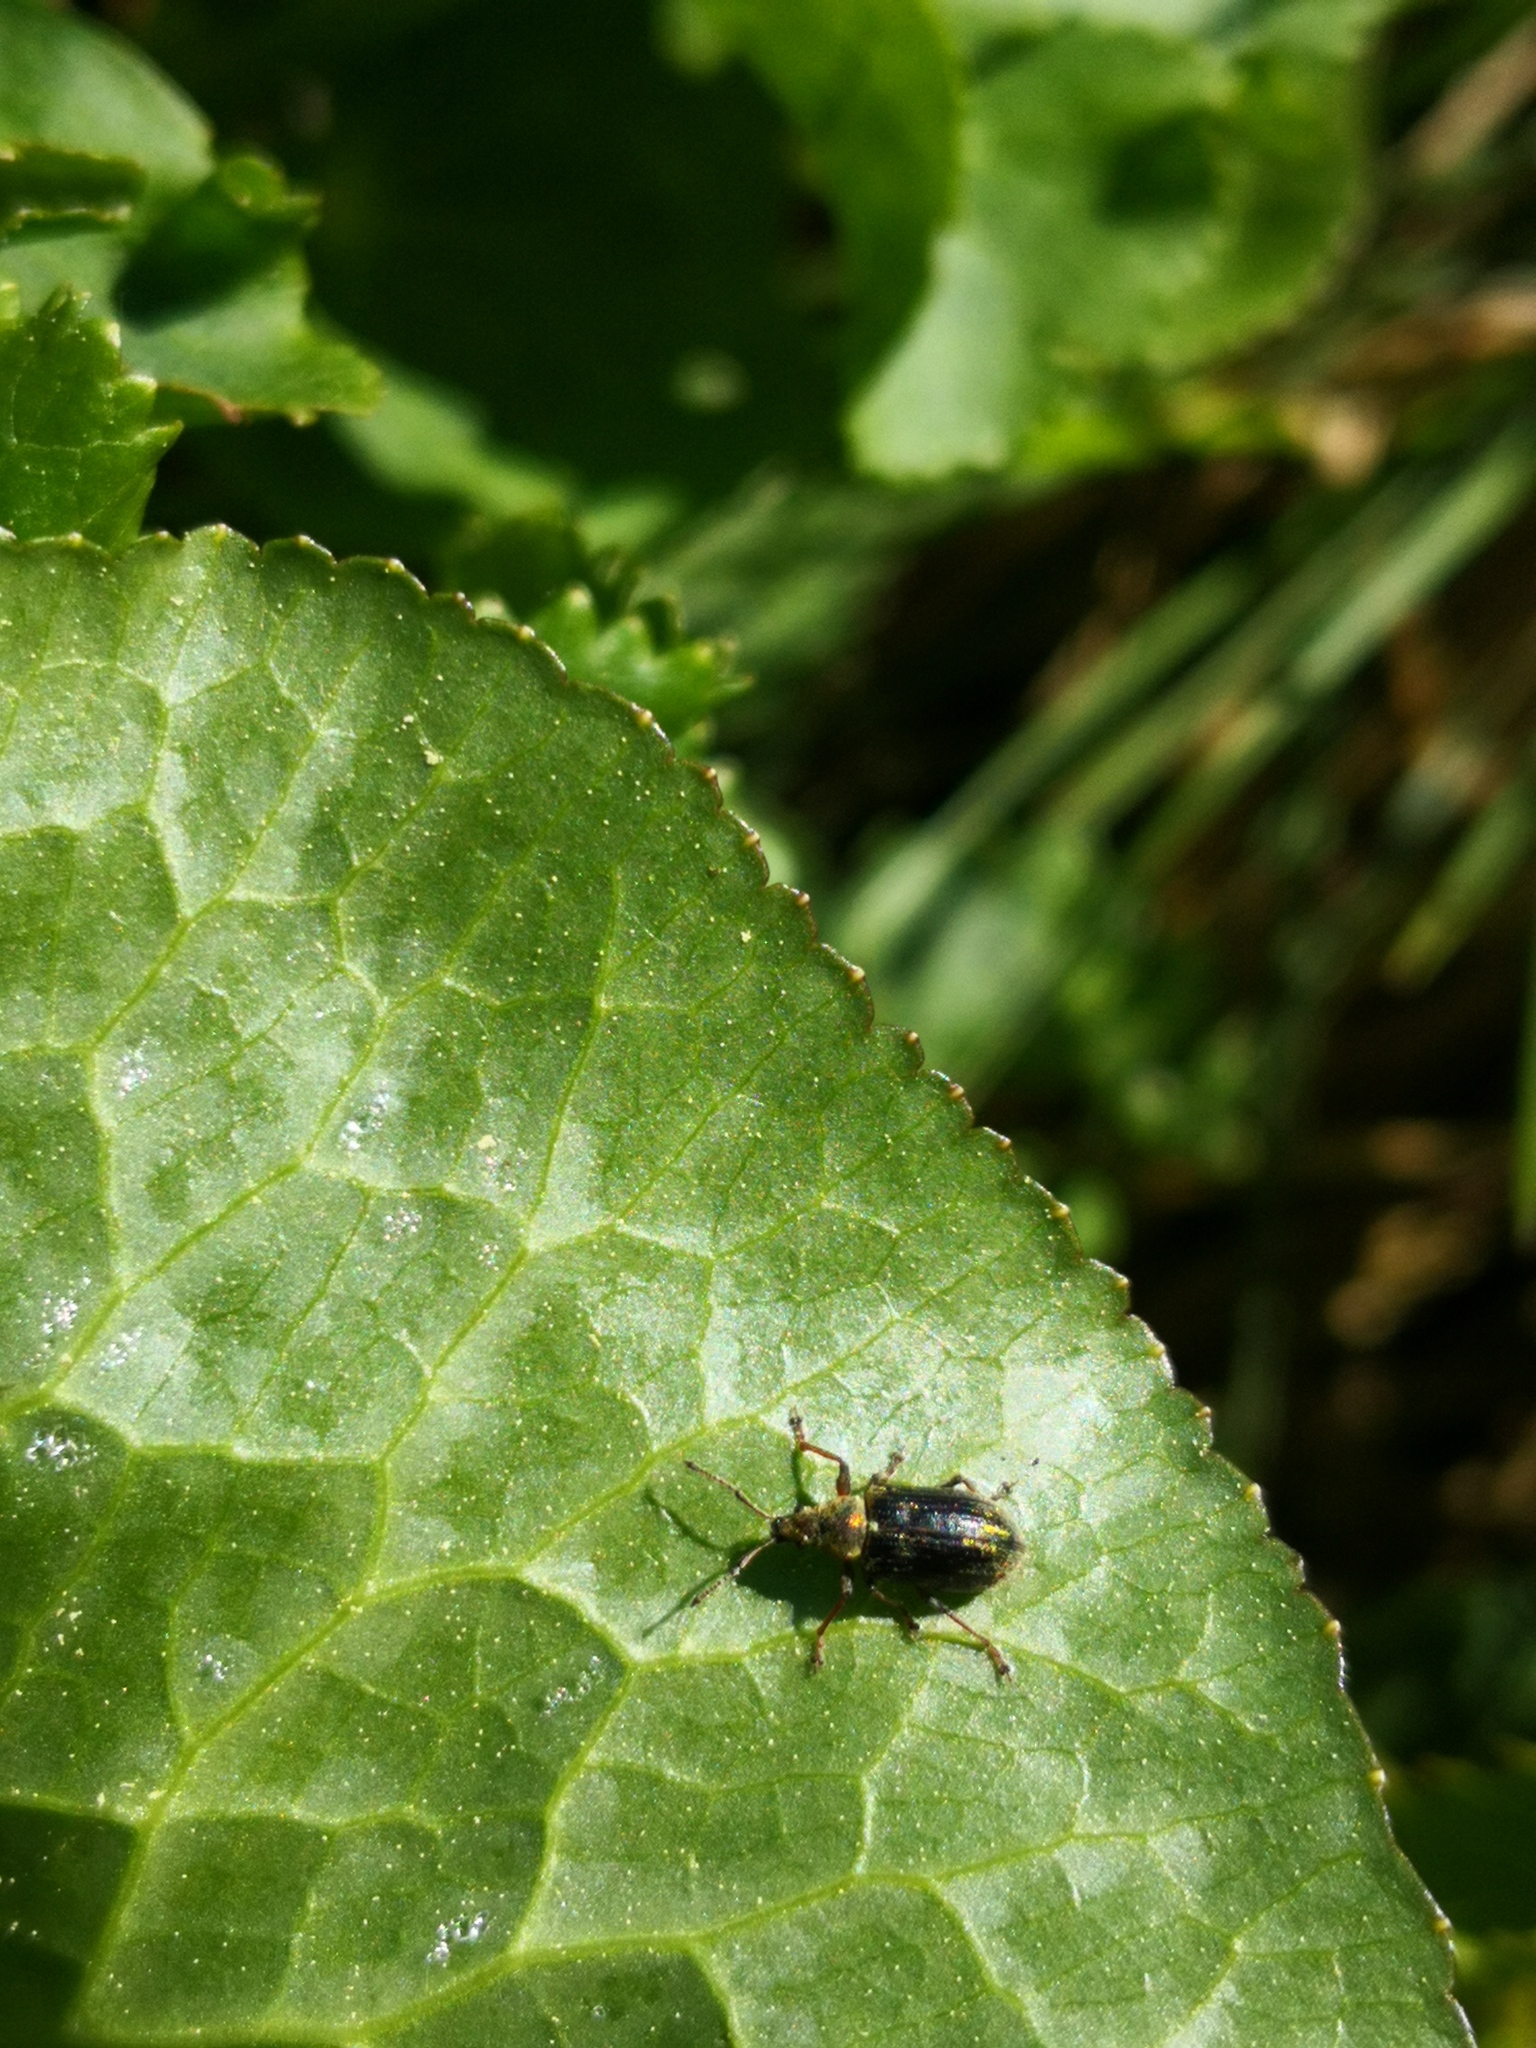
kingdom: Animalia
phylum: Arthropoda
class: Insecta
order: Coleoptera
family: Curculionidae
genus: Phyllobius
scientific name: Phyllobius pyri
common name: Common leaf weevil
